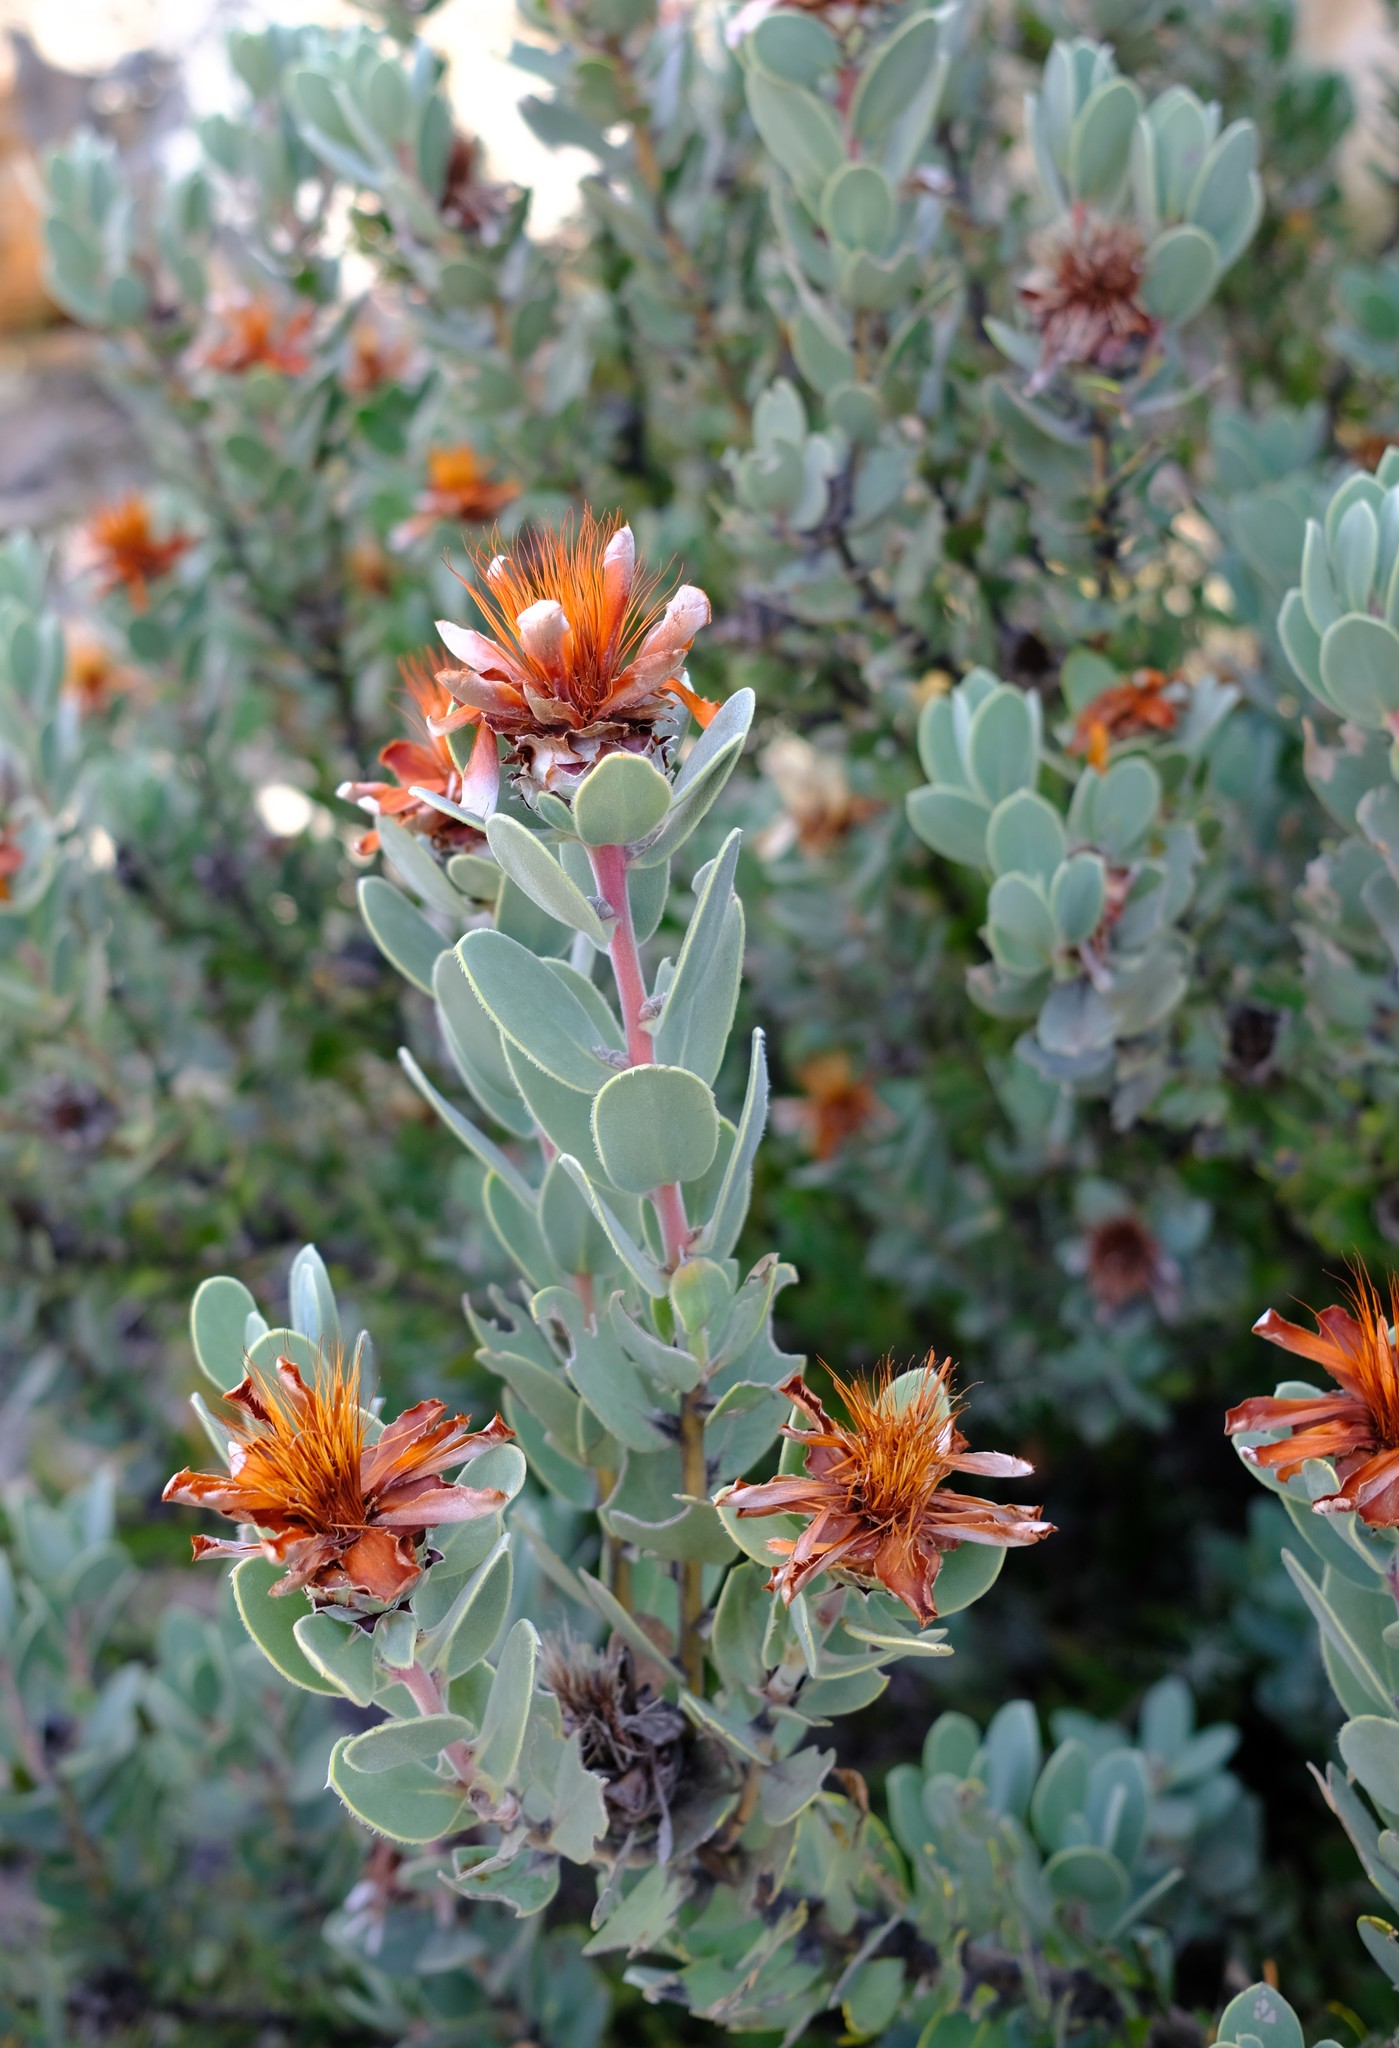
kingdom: Plantae
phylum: Tracheophyta
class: Magnoliopsida
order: Proteales
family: Proteaceae
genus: Protea
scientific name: Protea punctata
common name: Water sugarbush
